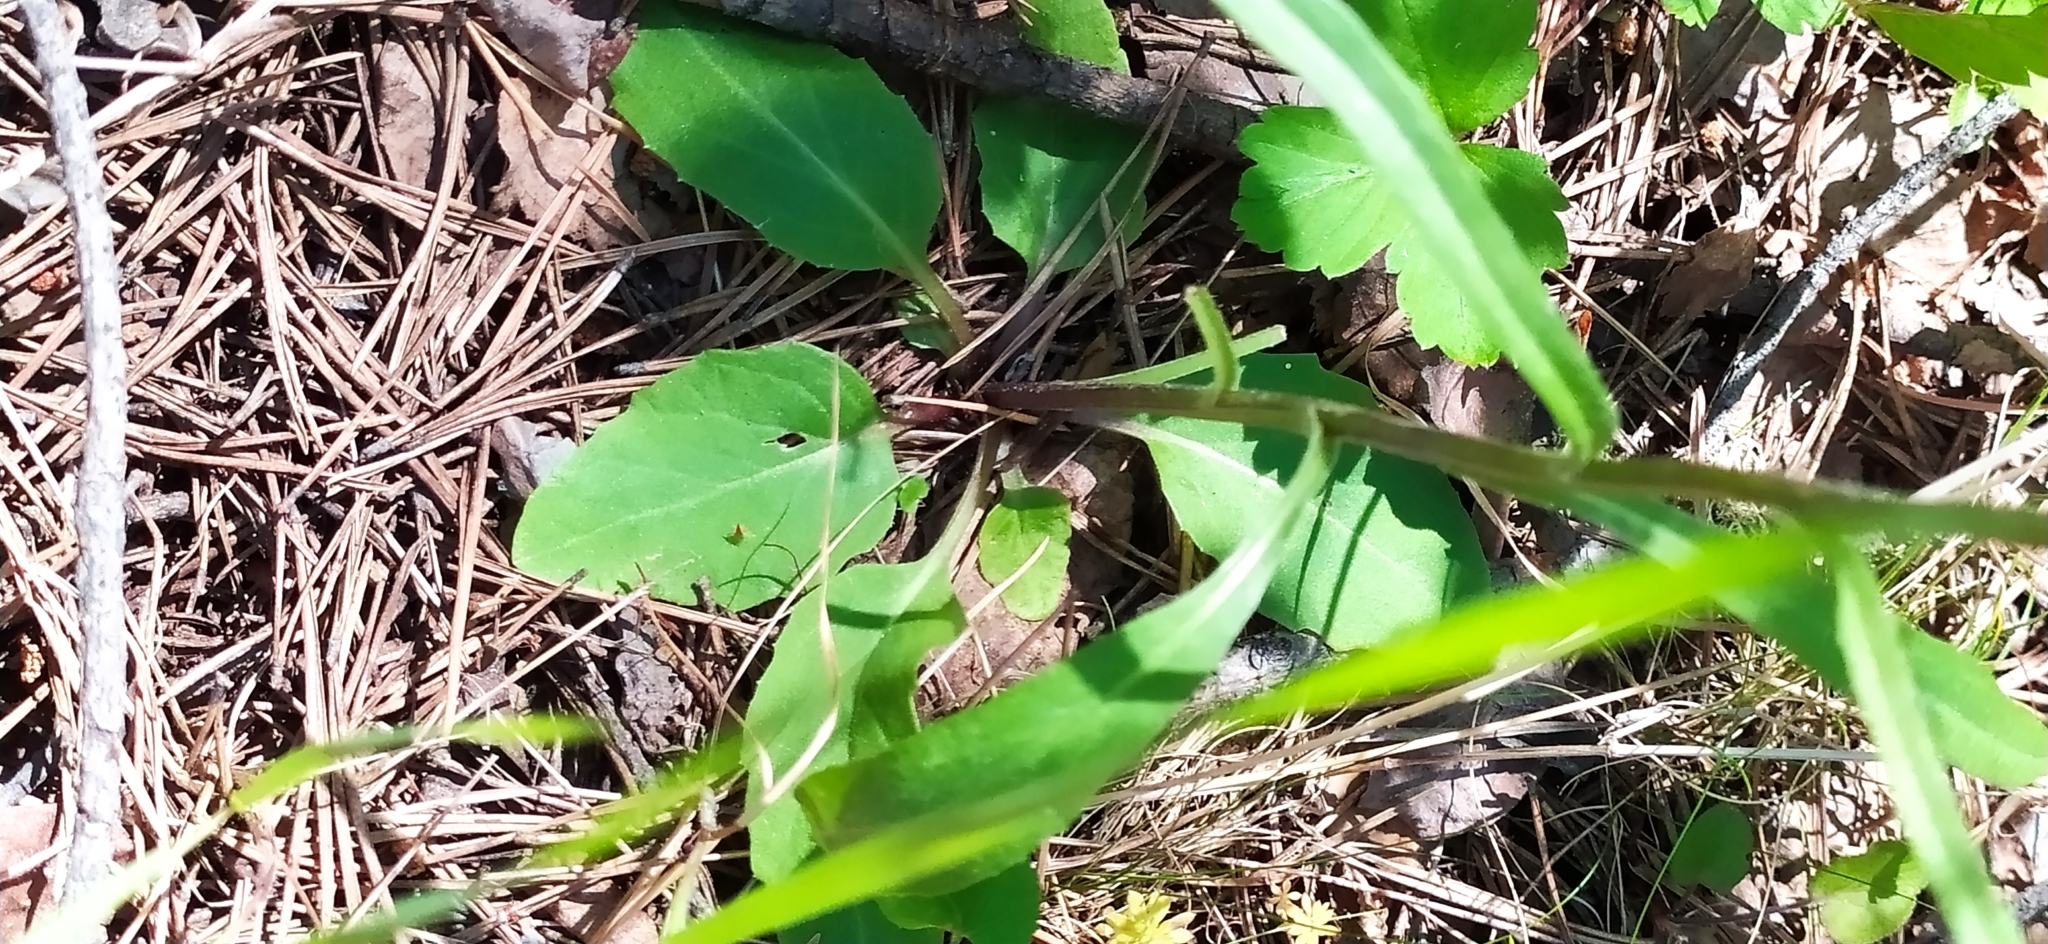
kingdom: Plantae
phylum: Tracheophyta
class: Magnoliopsida
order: Asterales
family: Asteraceae
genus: Tephroseris
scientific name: Tephroseris integrifolia
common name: Field fleawort
